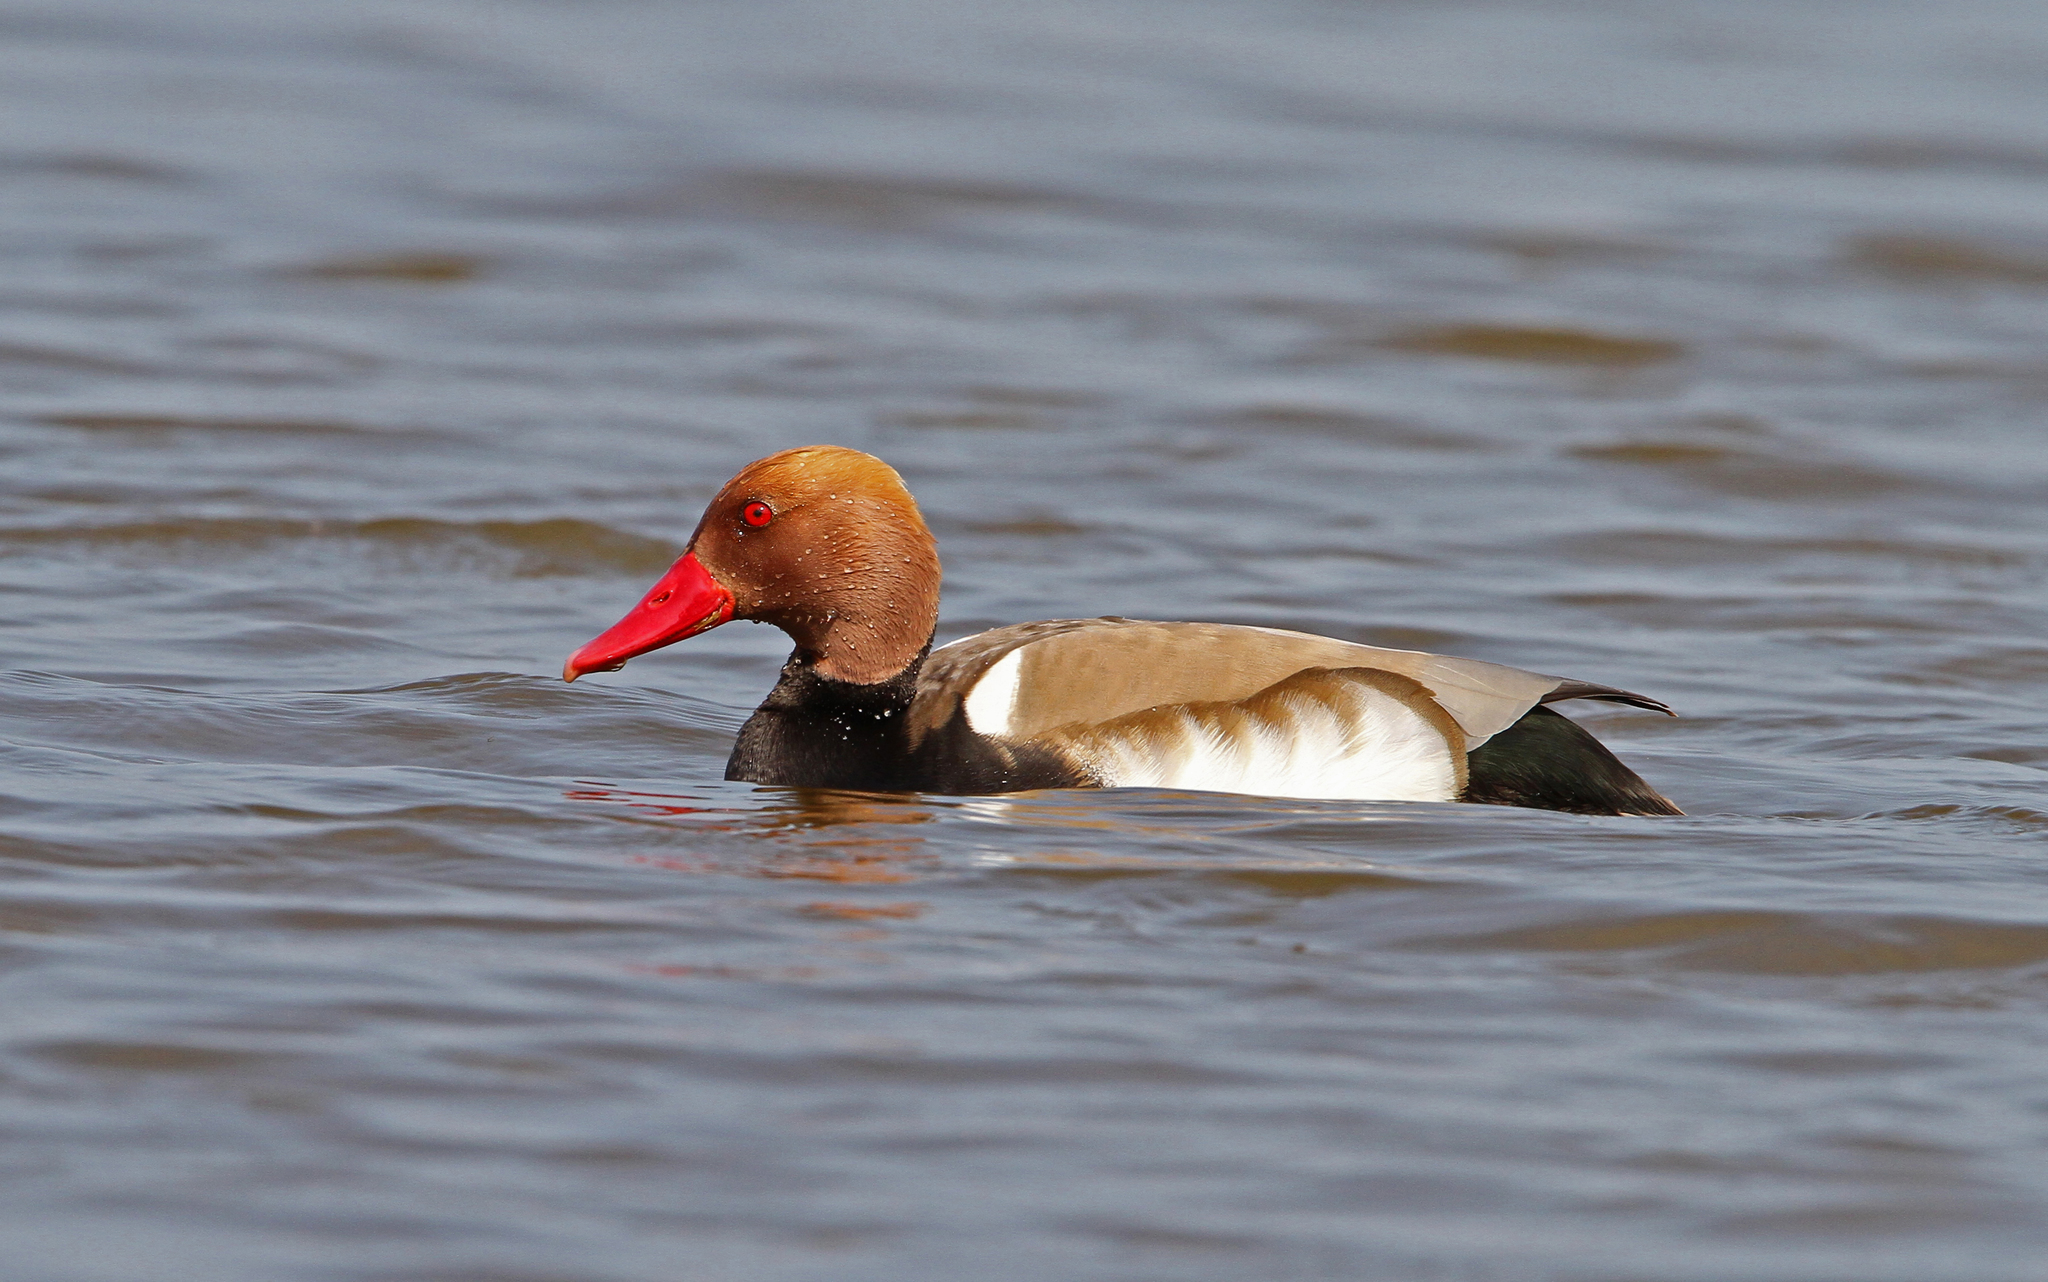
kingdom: Animalia
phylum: Chordata
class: Aves
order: Anseriformes
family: Anatidae
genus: Netta
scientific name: Netta rufina
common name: Red-crested pochard
